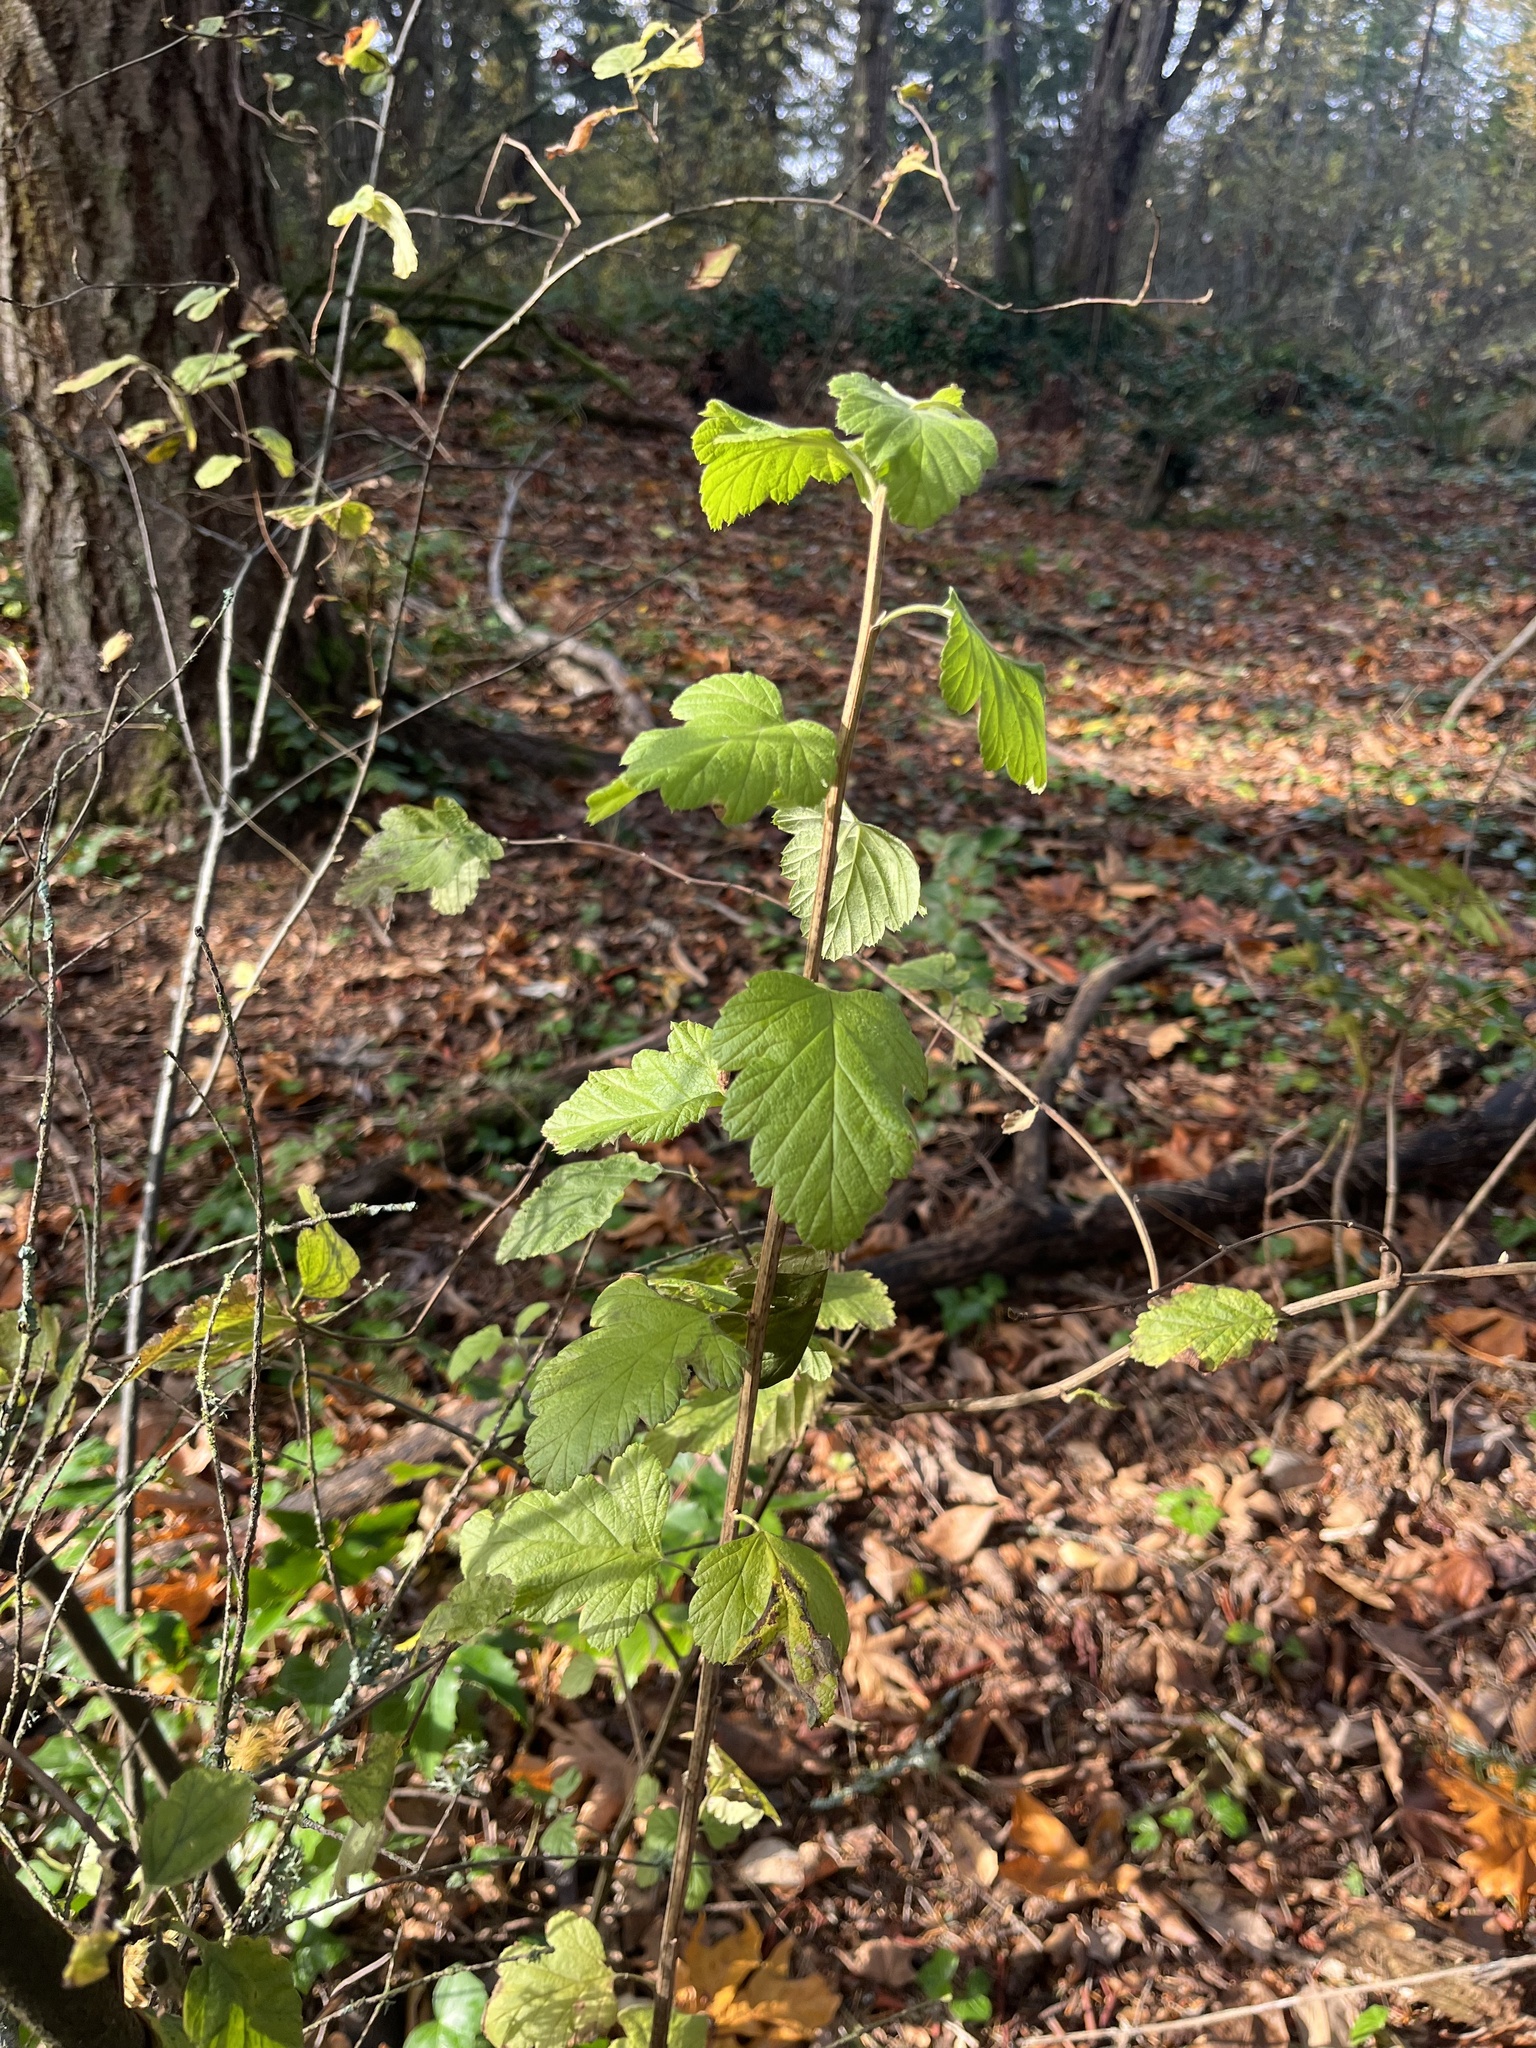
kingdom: Plantae
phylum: Tracheophyta
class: Magnoliopsida
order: Rosales
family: Rosaceae
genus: Holodiscus
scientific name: Holodiscus discolor
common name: Oceanspray
